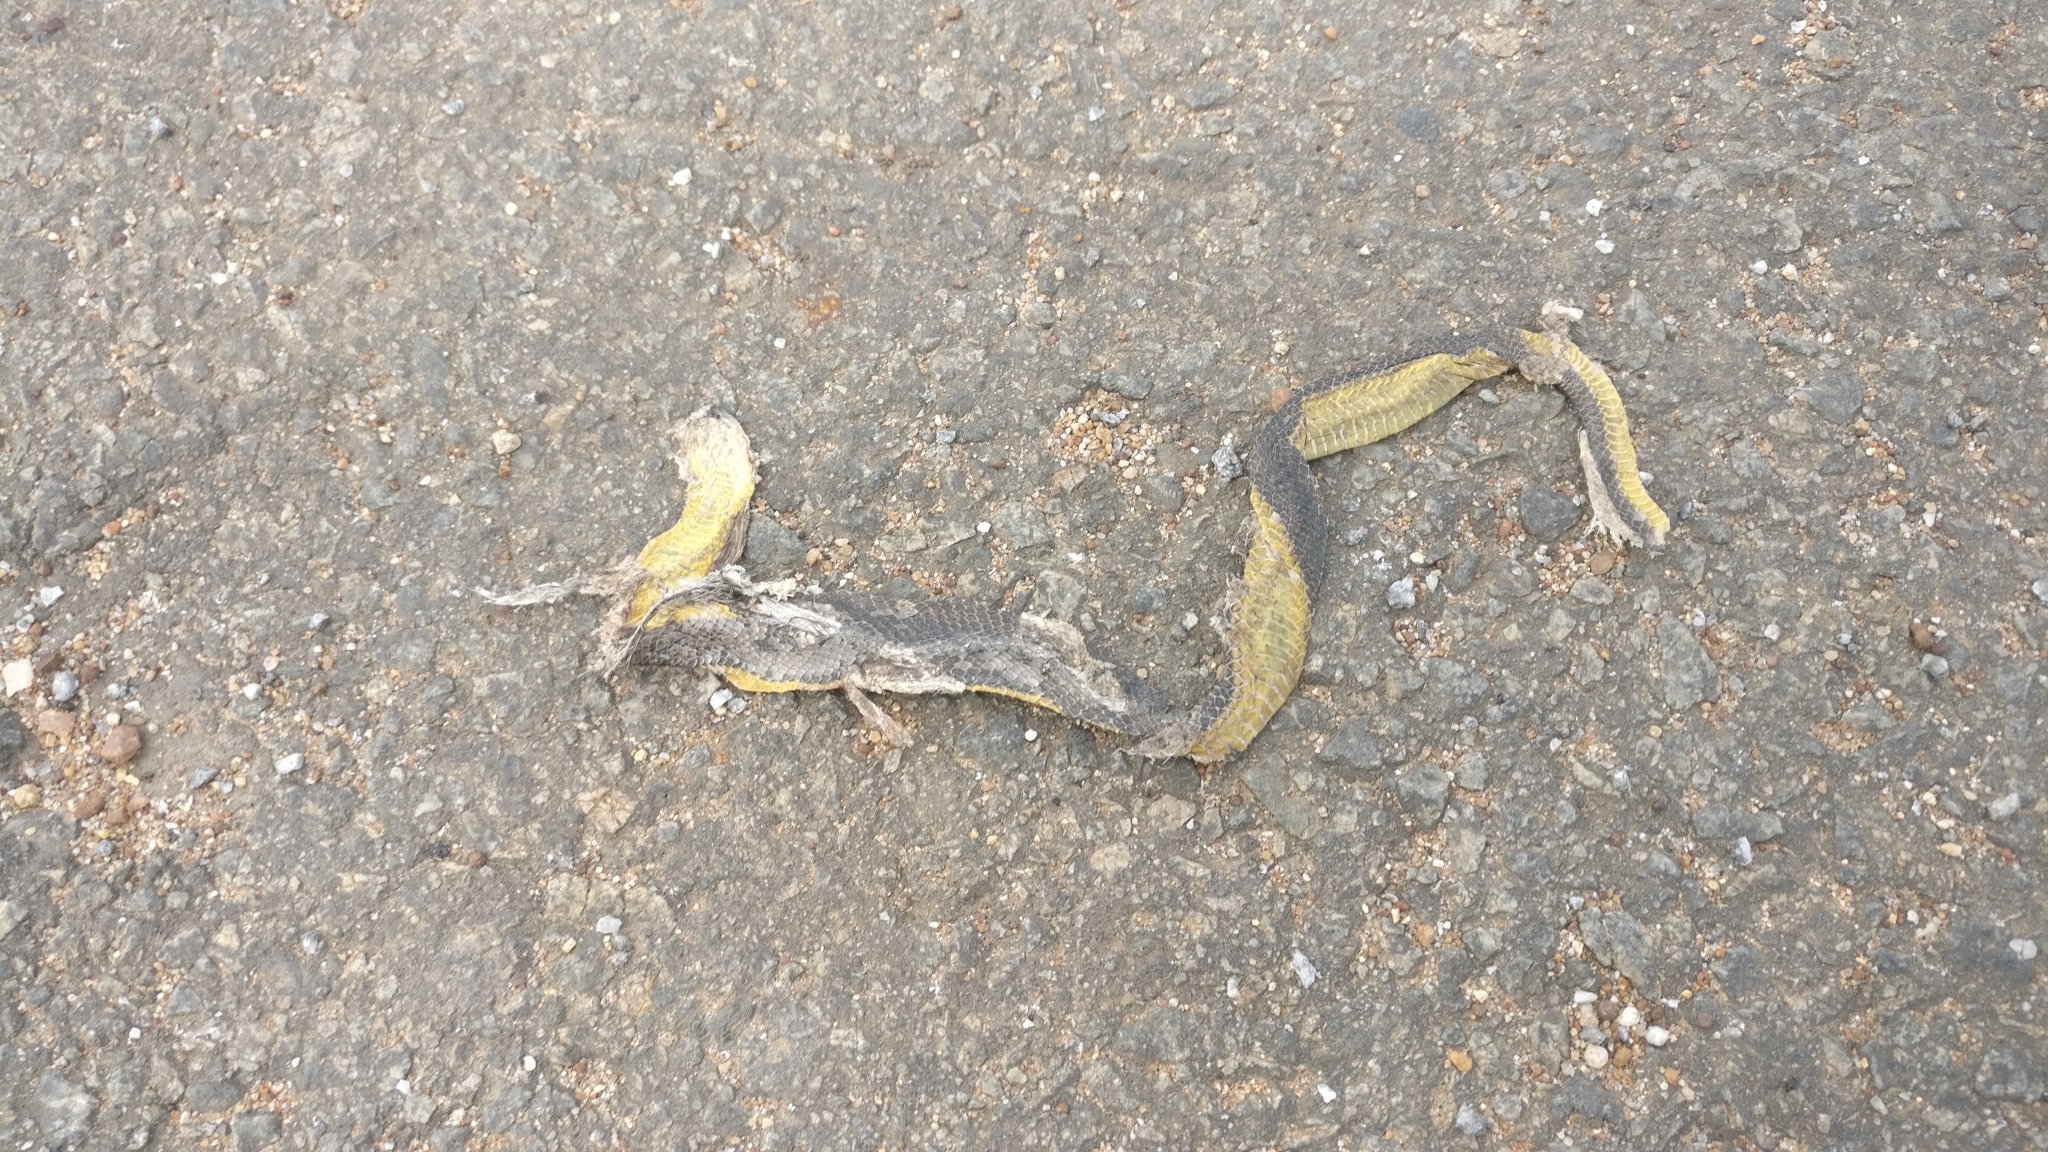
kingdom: Animalia
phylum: Chordata
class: Squamata
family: Colubridae
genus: Atretium
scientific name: Atretium schistosum
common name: Olive keelback wart snake
